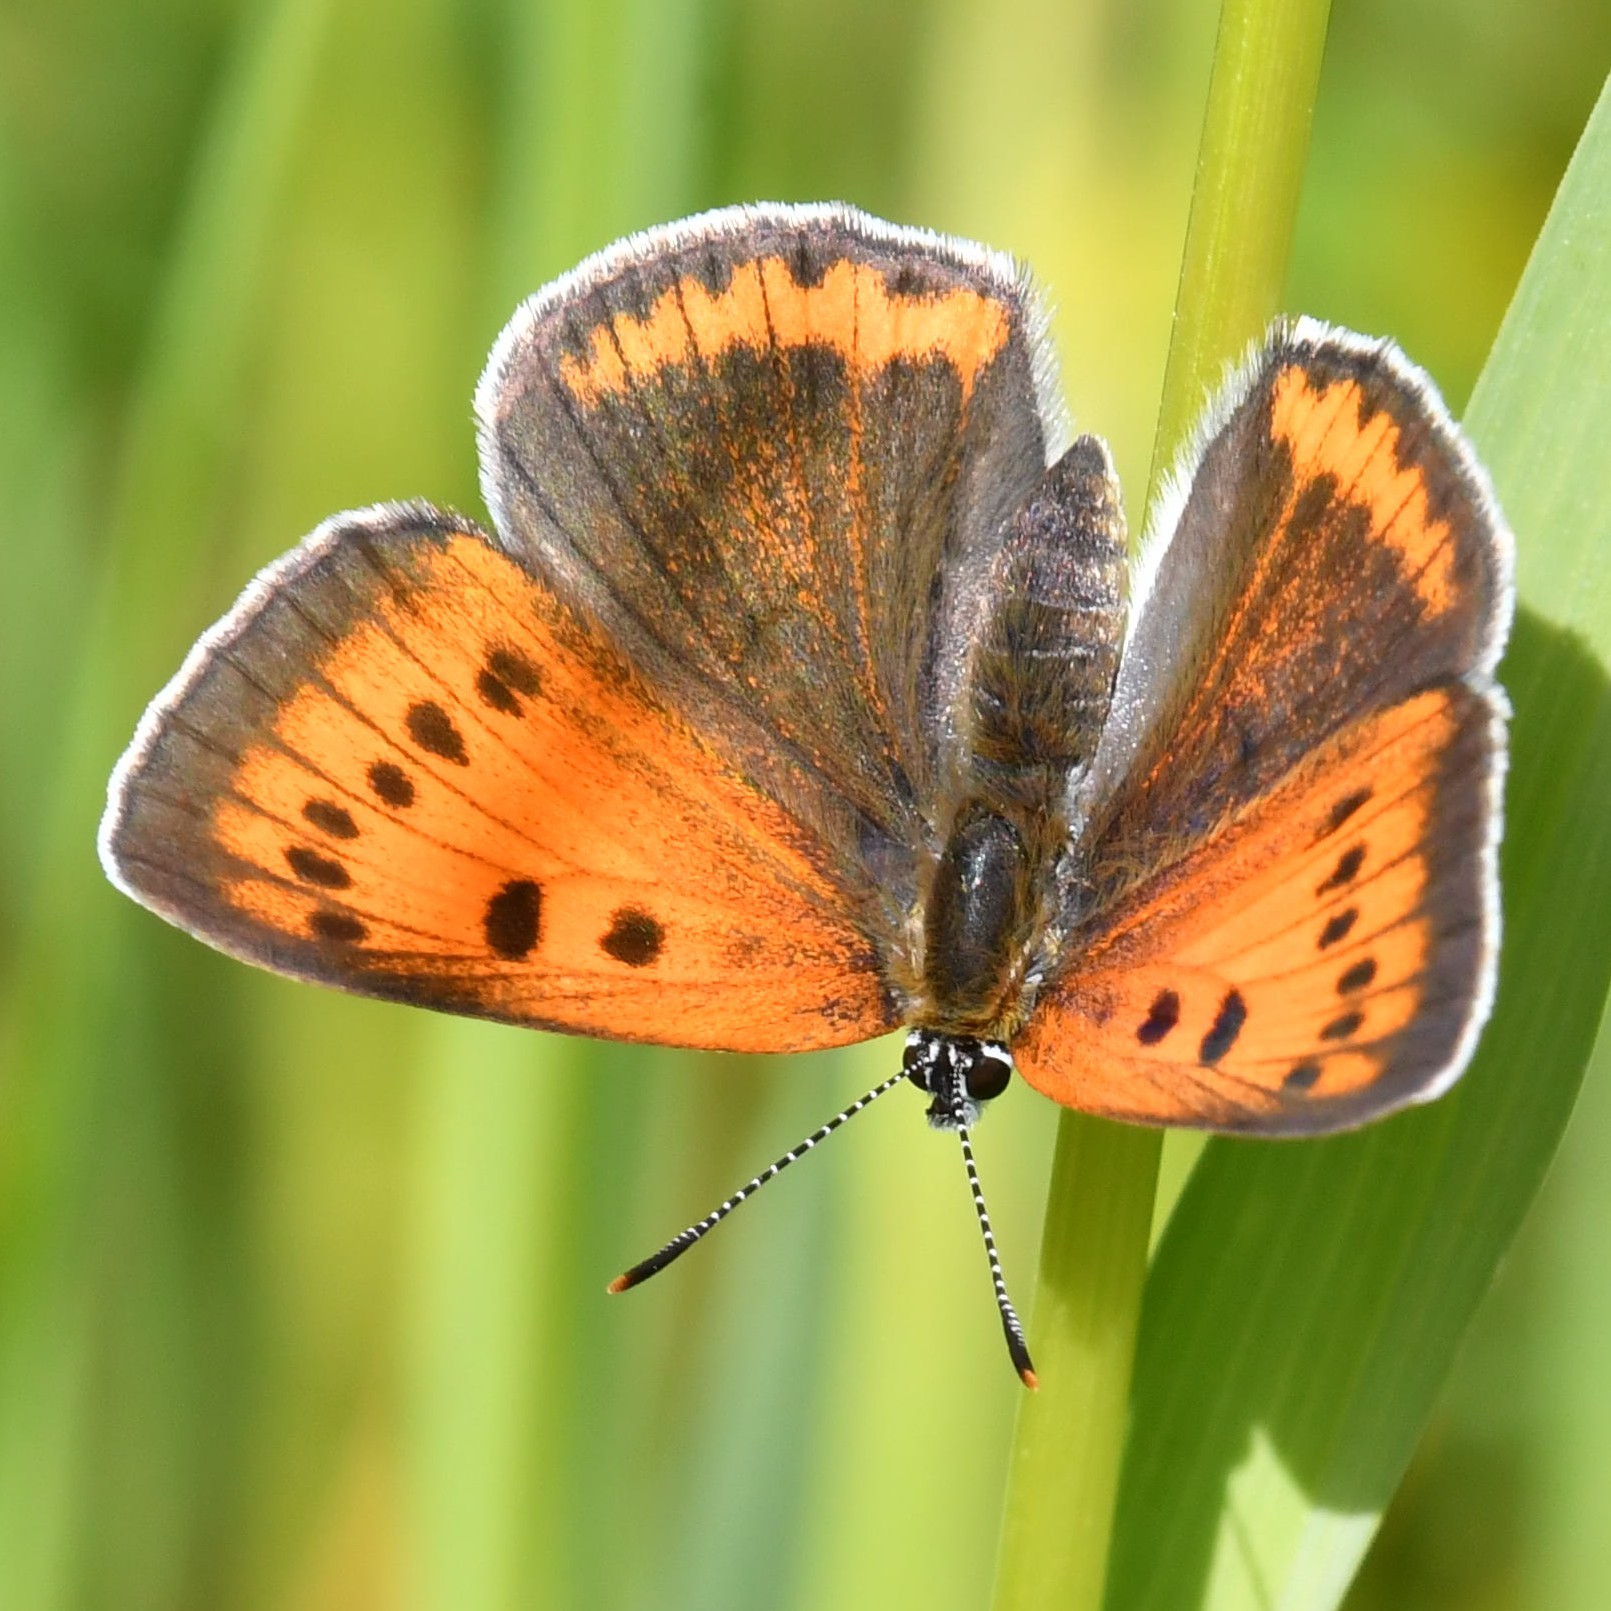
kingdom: Animalia
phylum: Arthropoda
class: Insecta
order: Lepidoptera
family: Lycaenidae
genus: Lycaena
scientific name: Lycaena dispar
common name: Large copper
